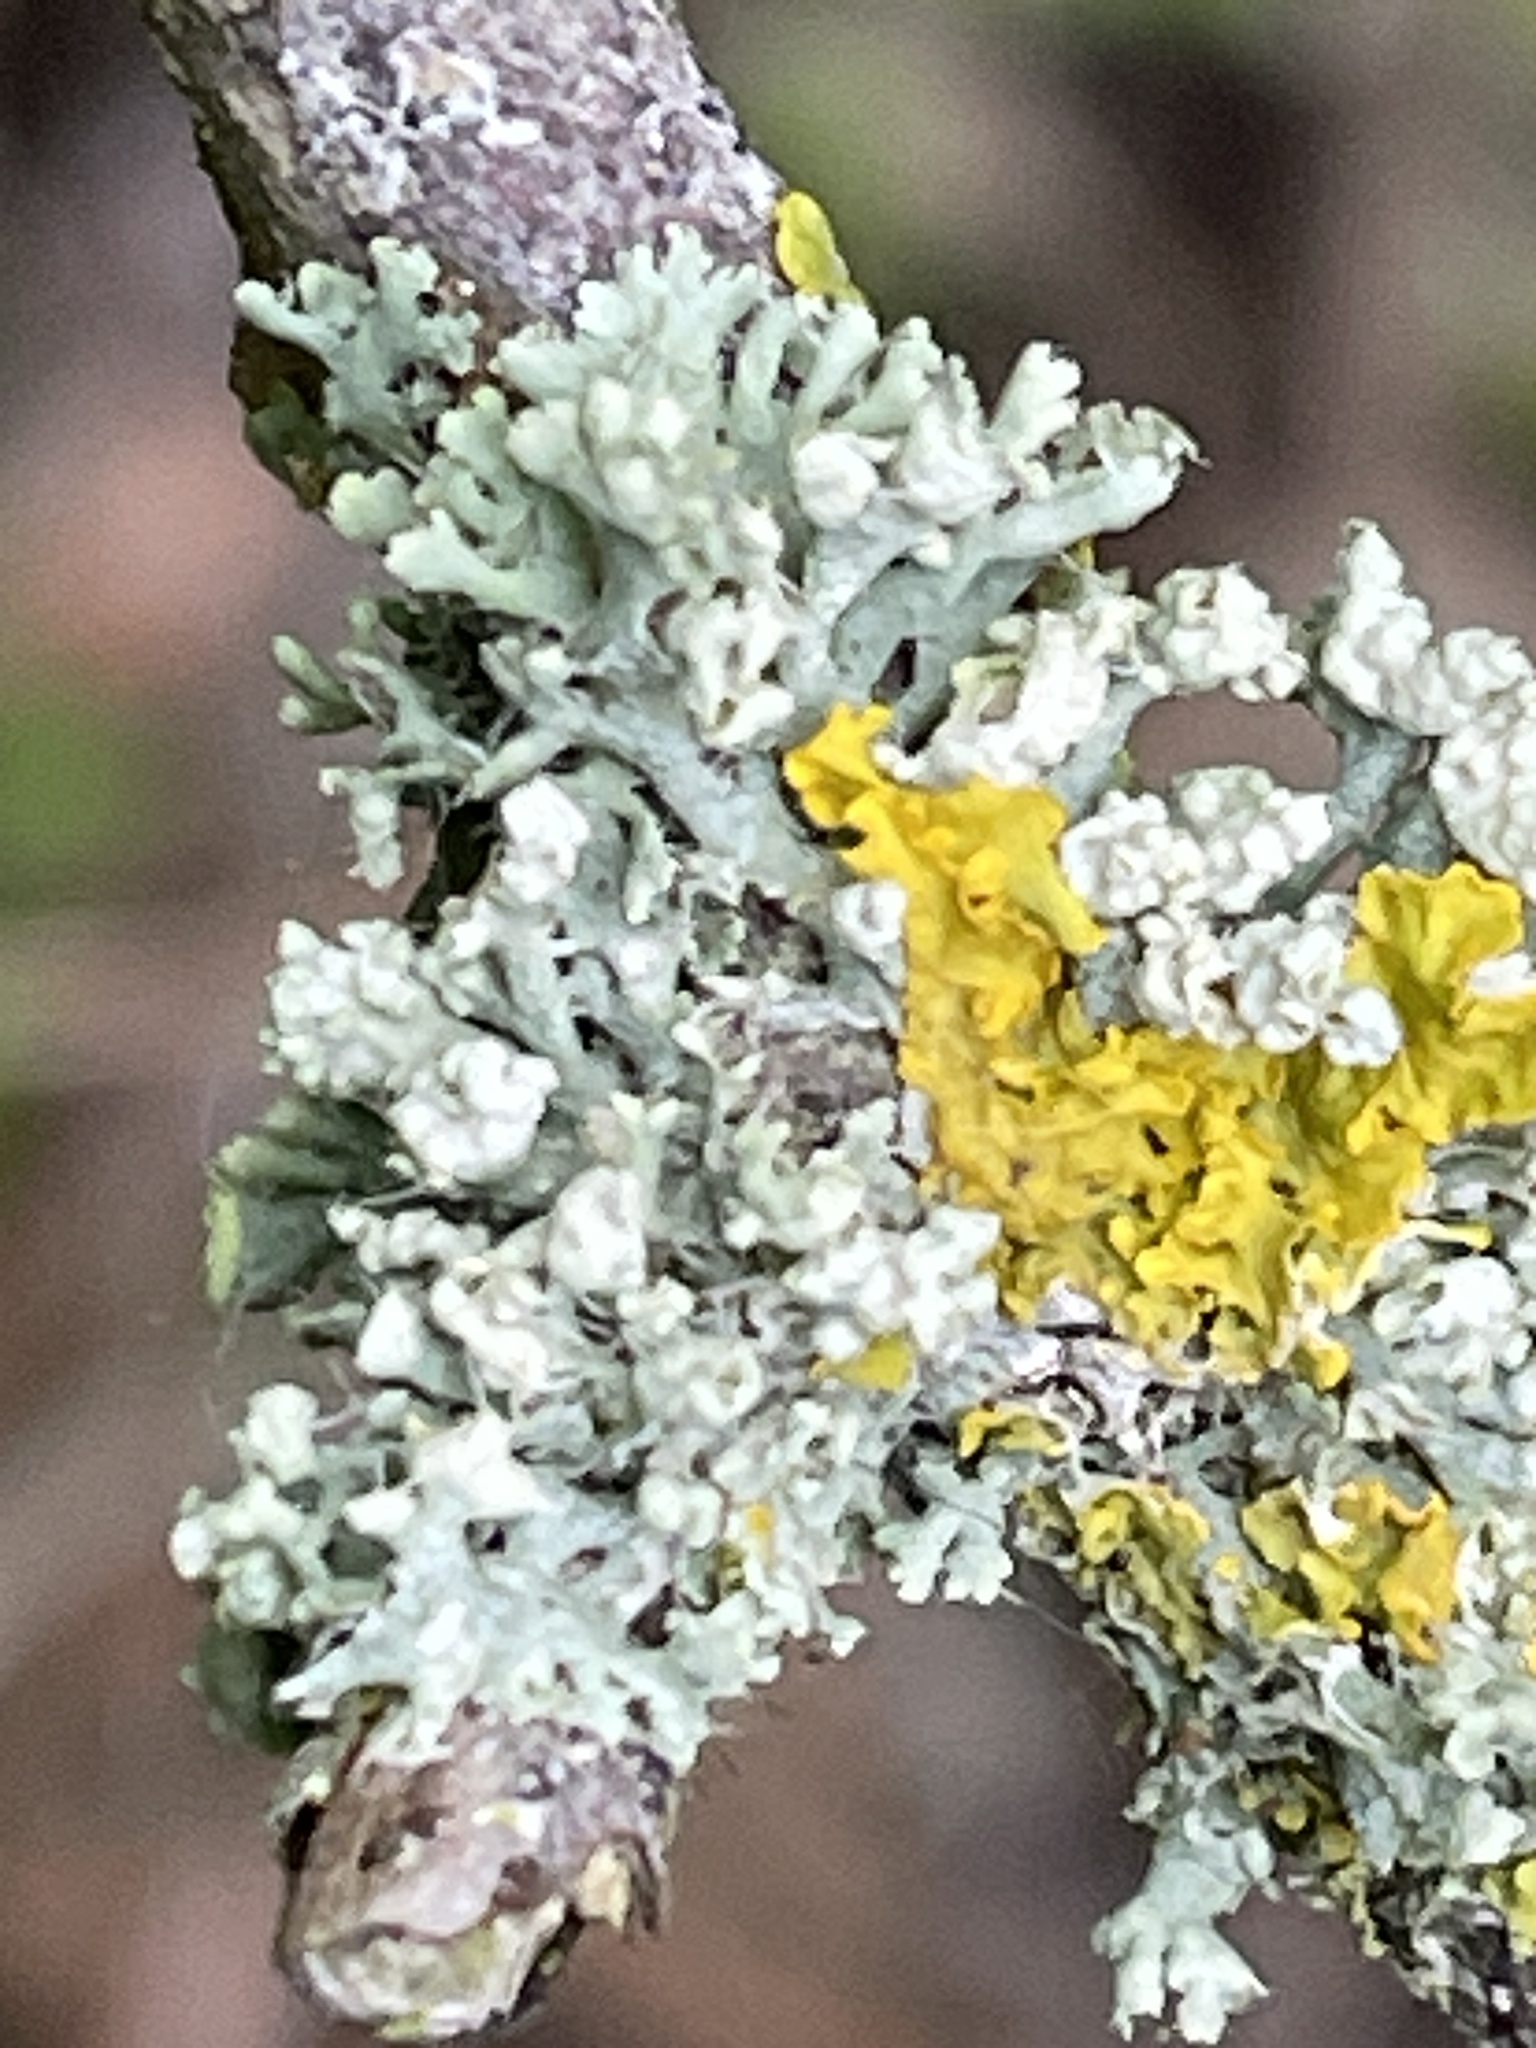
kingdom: Fungi
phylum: Ascomycota
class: Lecanoromycetes
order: Caliciales
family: Physciaceae
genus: Physcia
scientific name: Physcia adscendens
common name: Hooded rosette lichen
